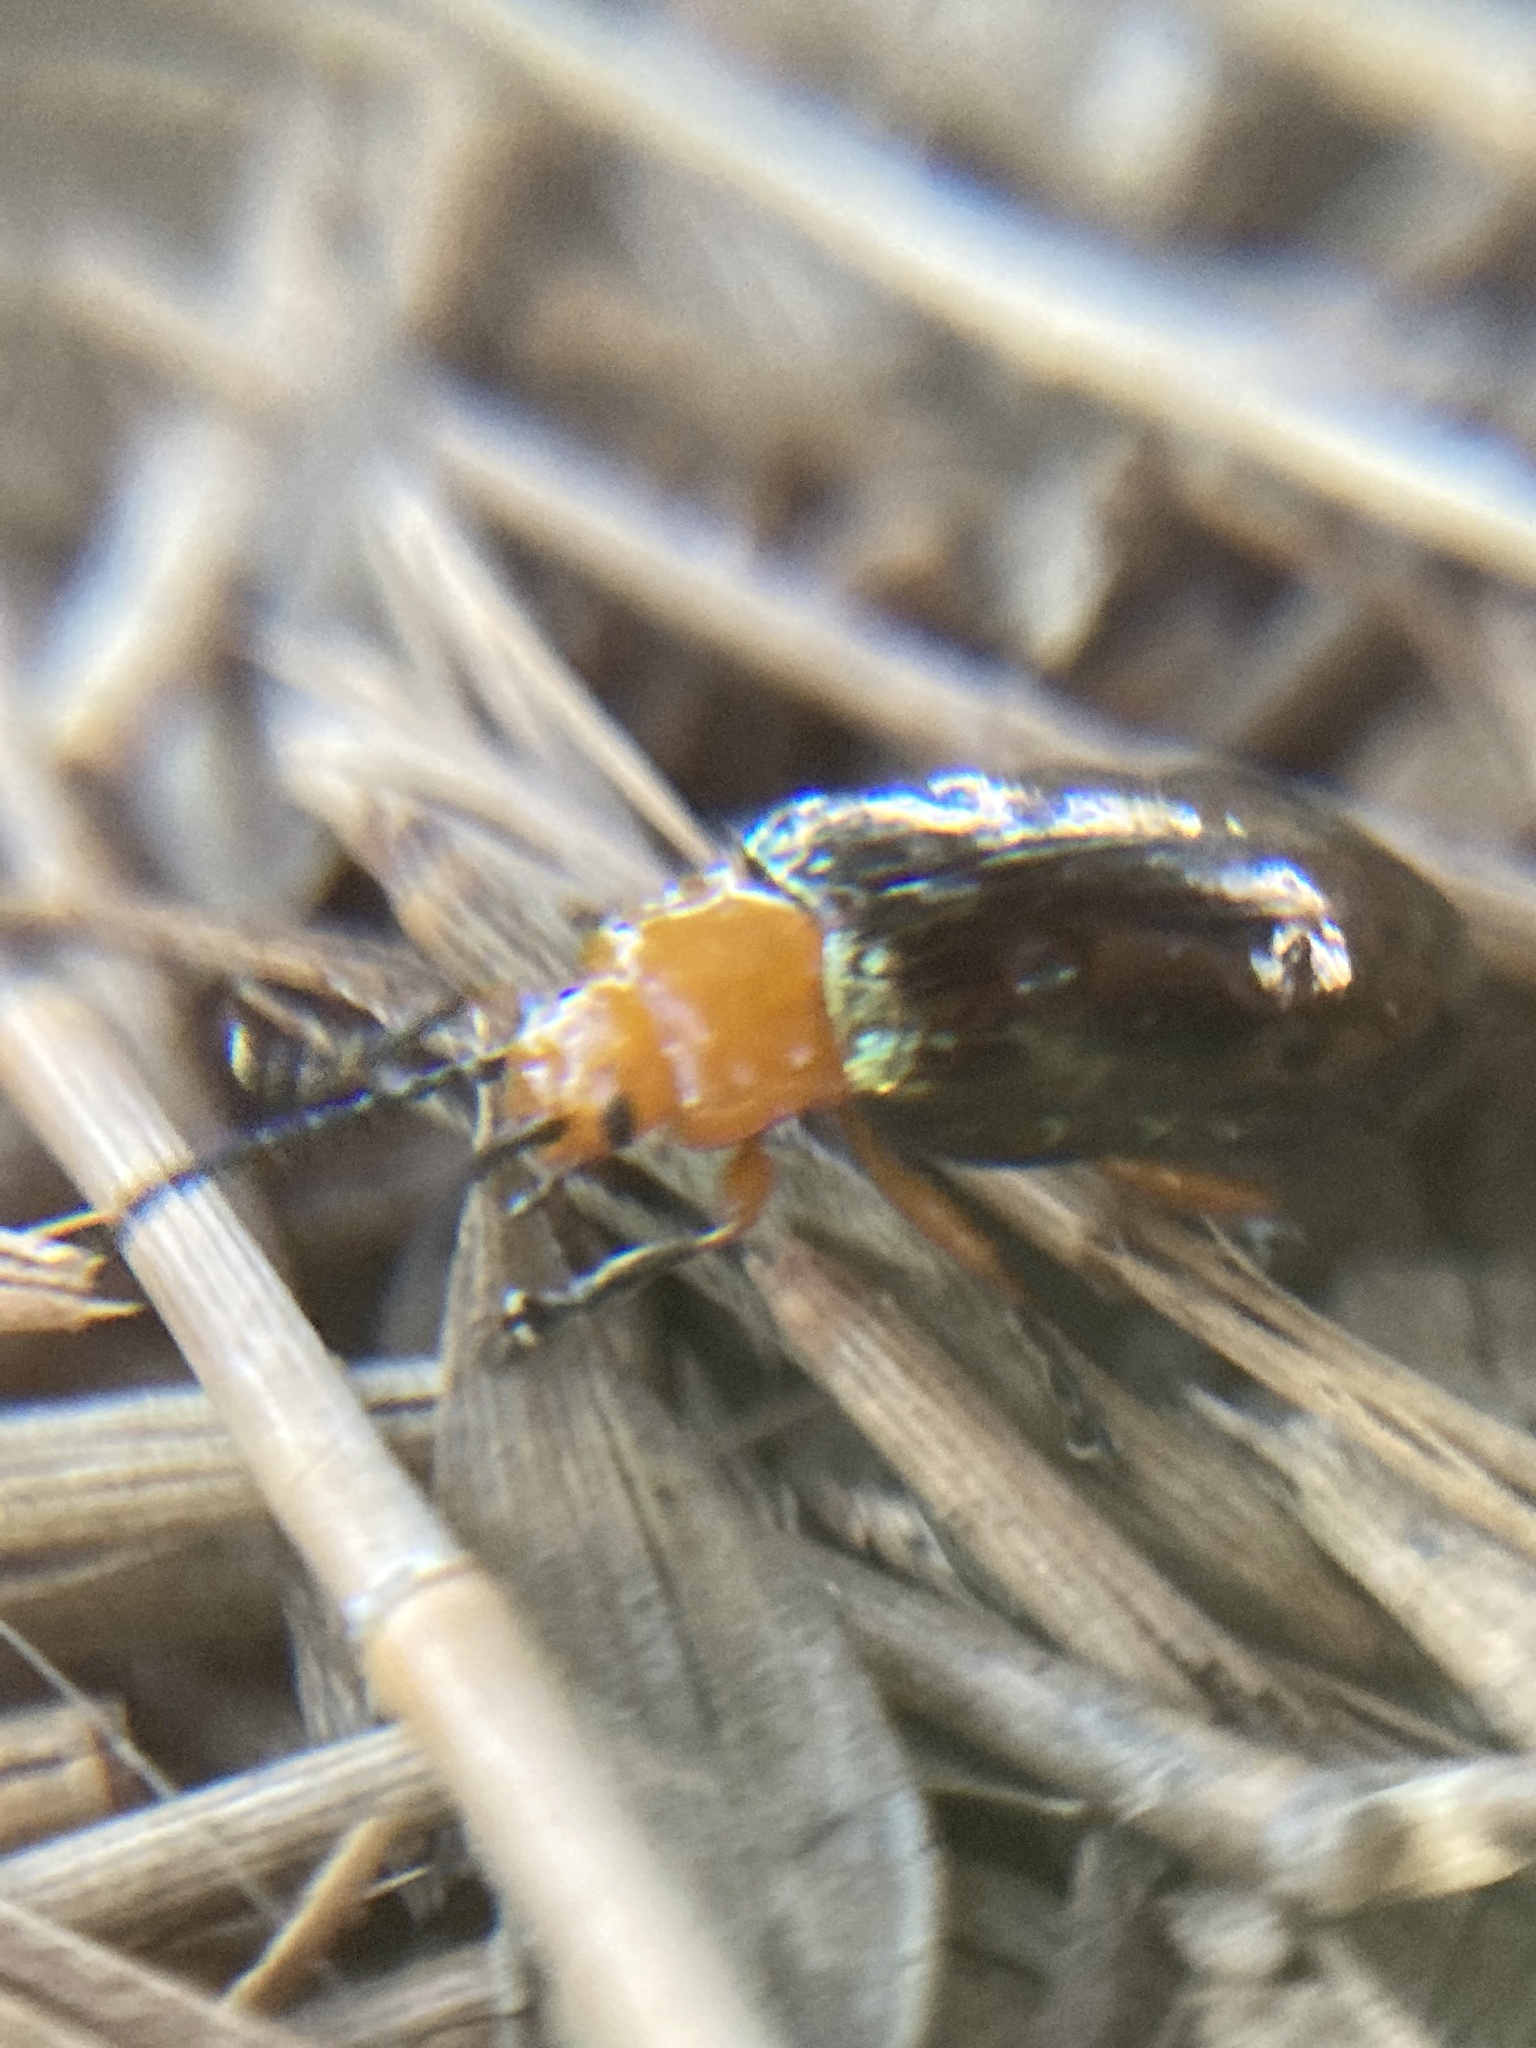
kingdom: Animalia
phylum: Arthropoda
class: Insecta
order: Coleoptera
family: Chrysomelidae
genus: Lamprolina
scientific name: Lamprolina
